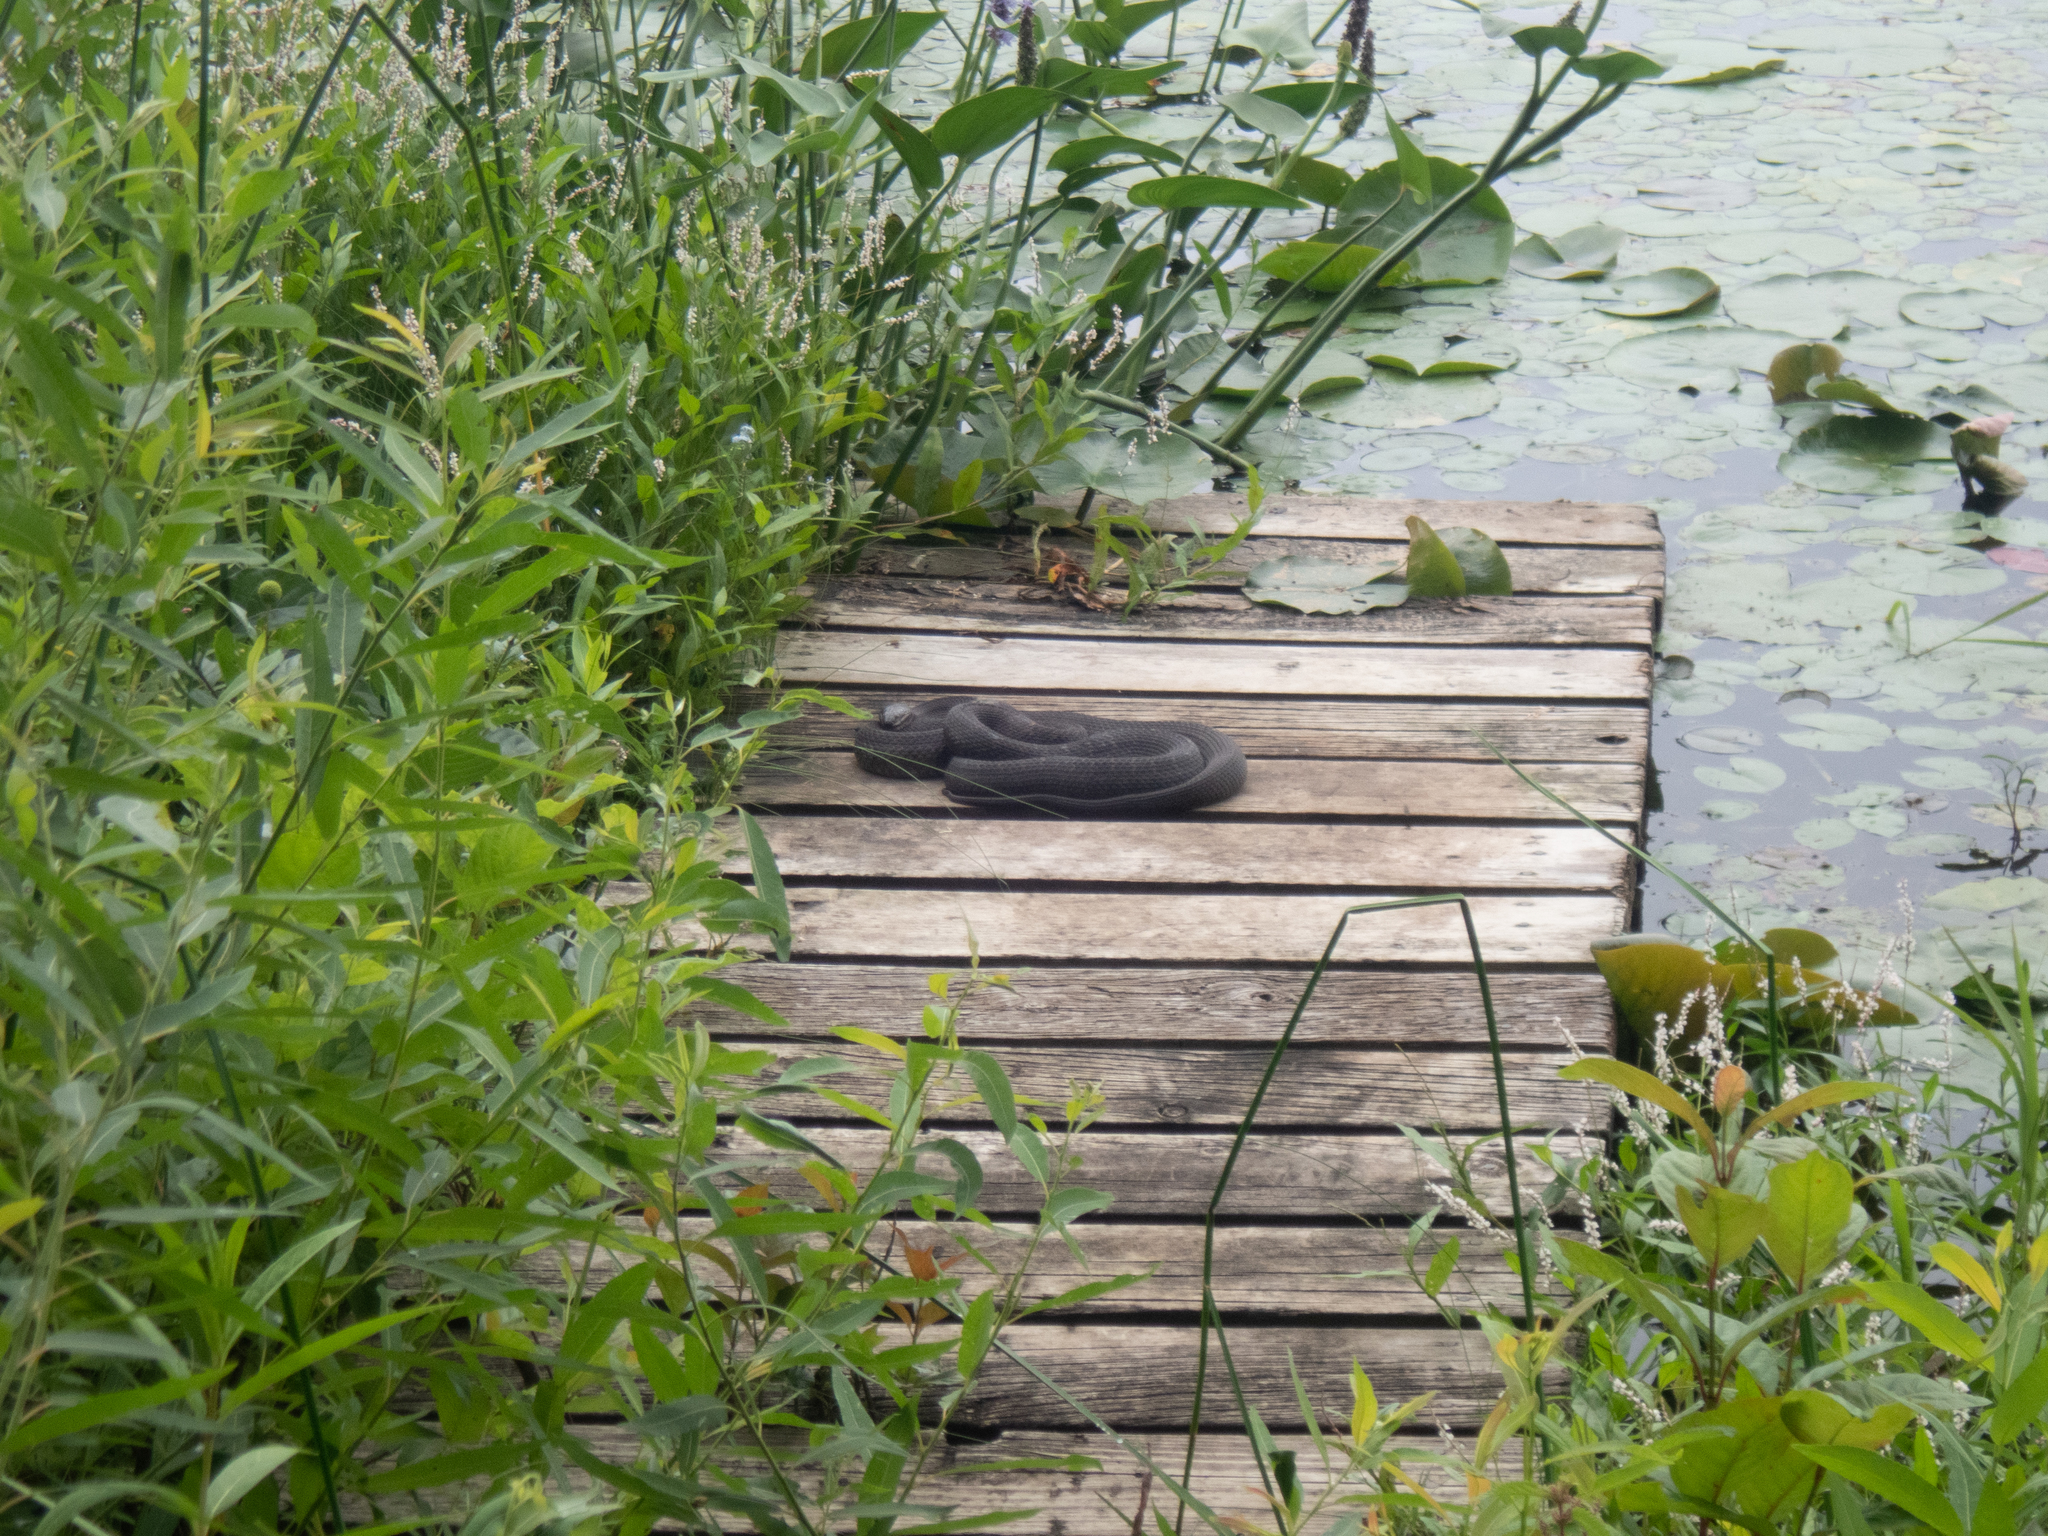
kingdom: Animalia
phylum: Chordata
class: Squamata
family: Colubridae
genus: Nerodia
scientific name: Nerodia sipedon
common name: Northern water snake
